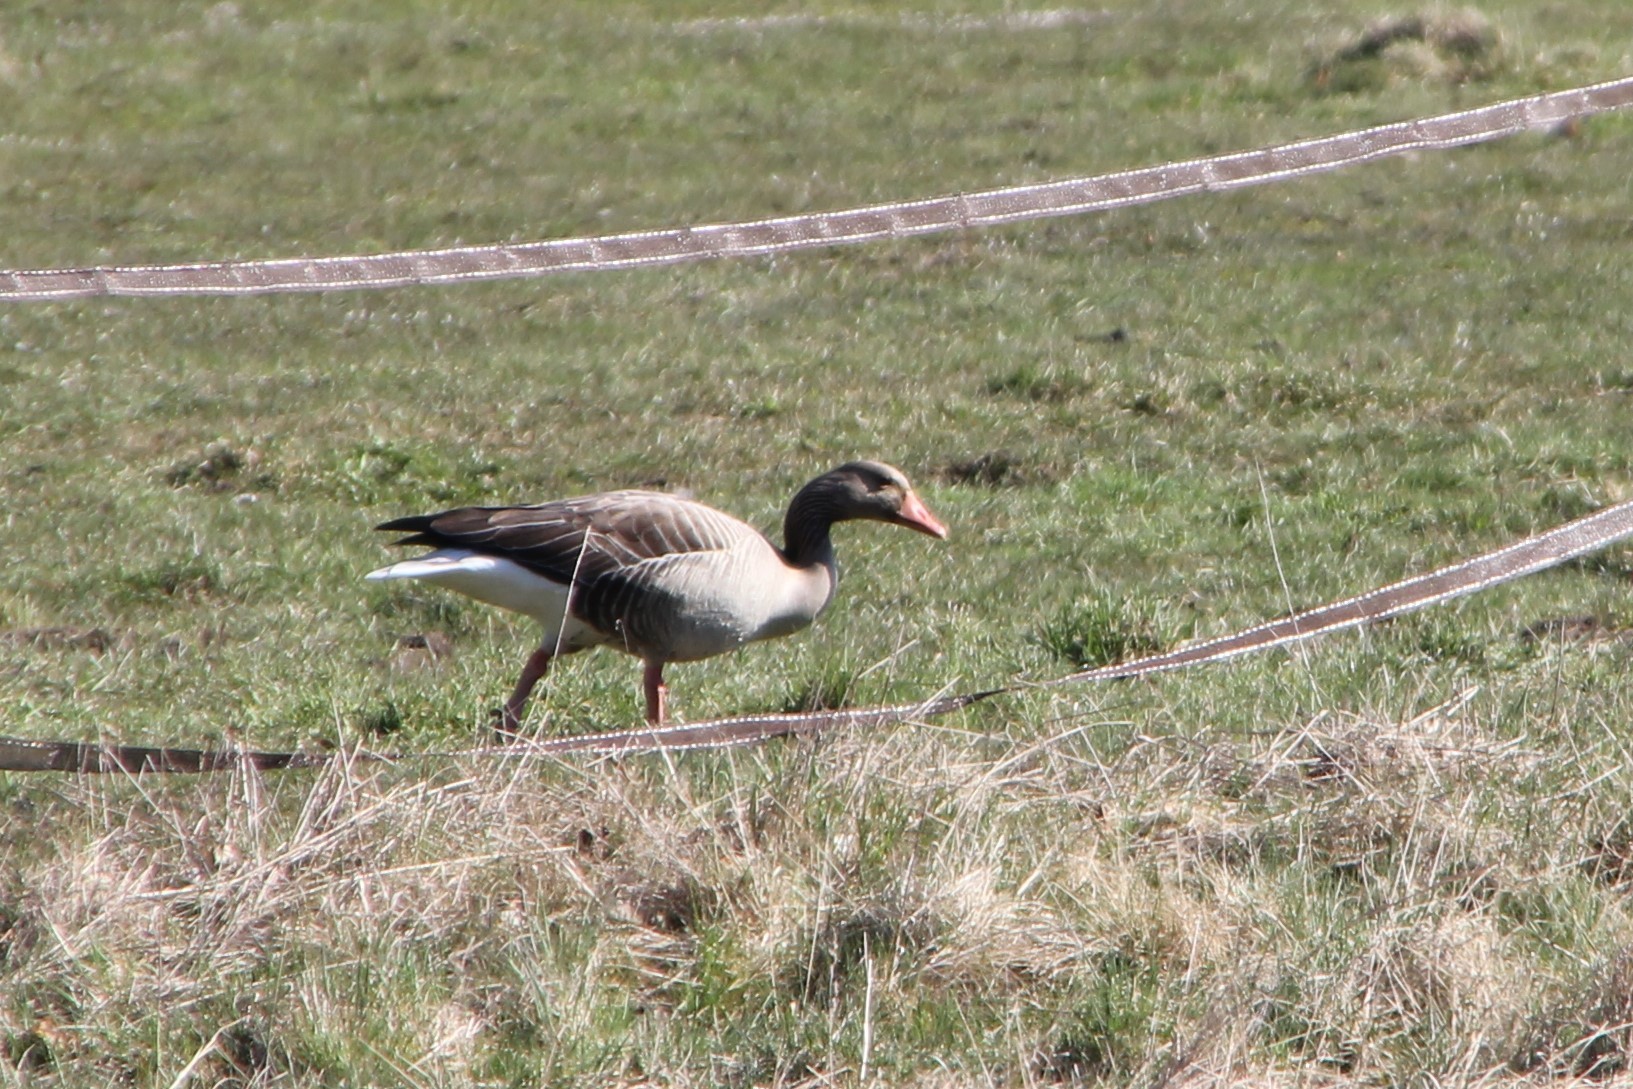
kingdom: Animalia
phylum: Chordata
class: Aves
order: Anseriformes
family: Anatidae
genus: Anser
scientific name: Anser anser
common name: Greylag goose
